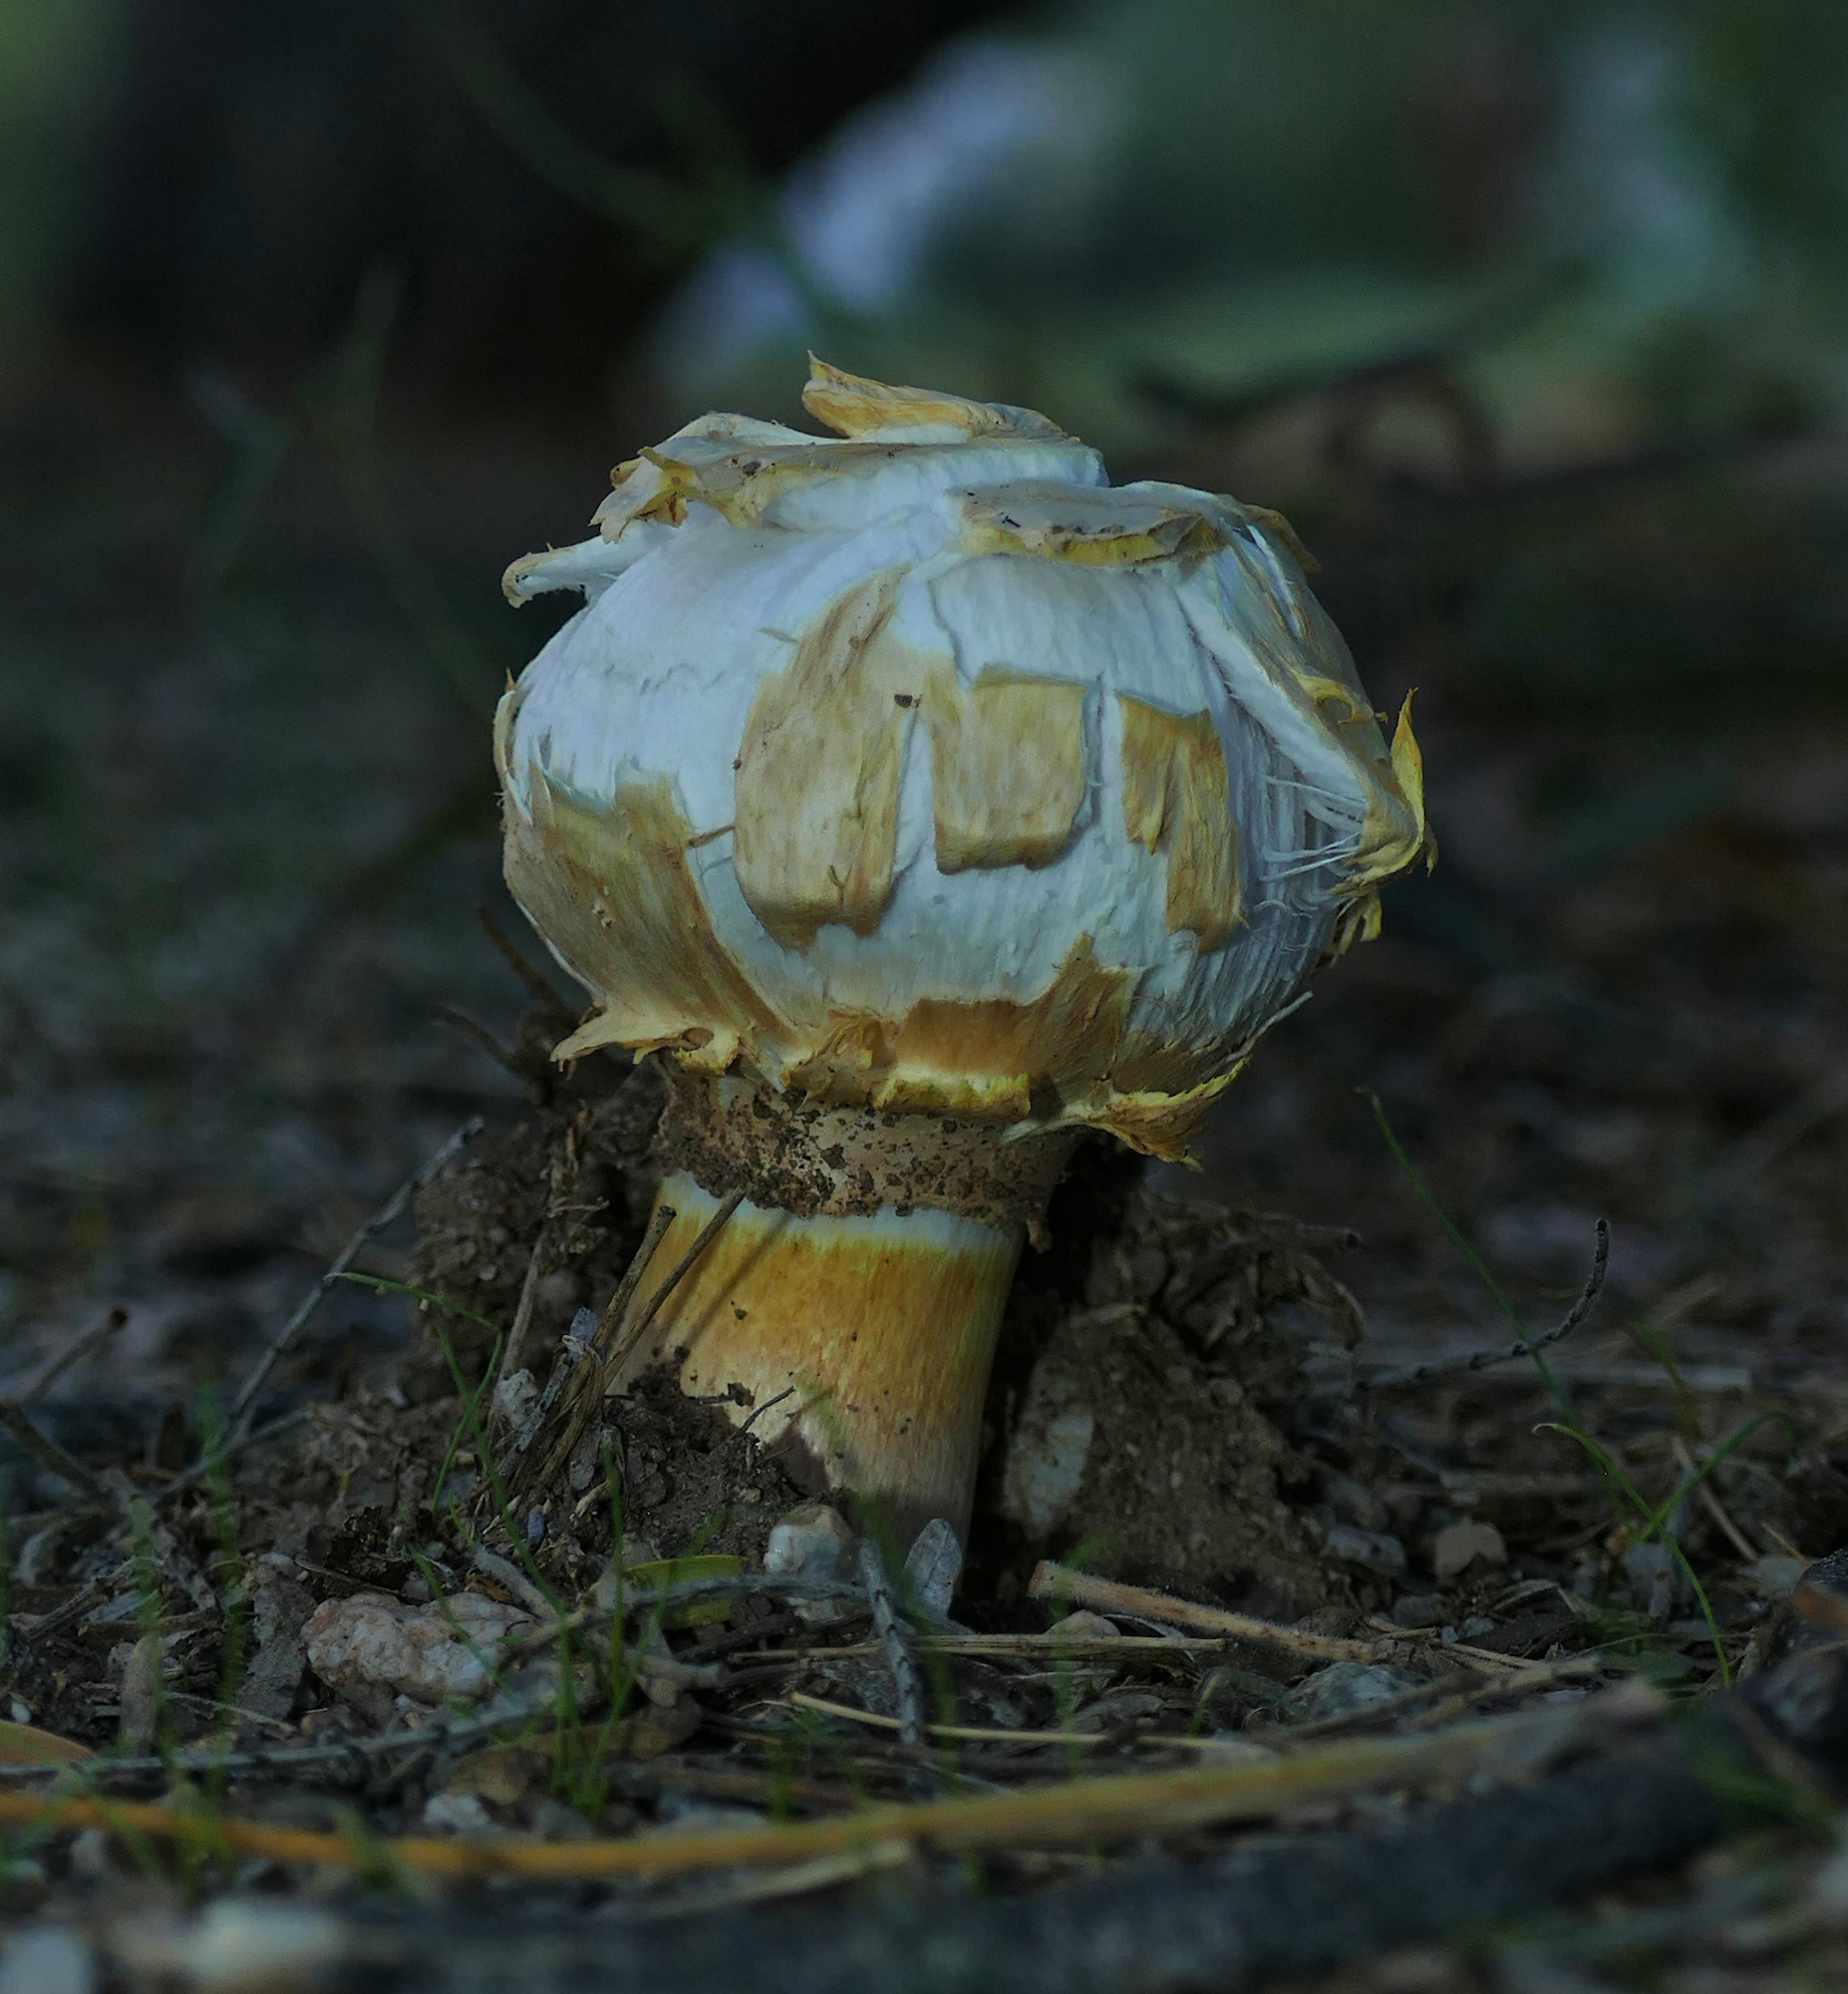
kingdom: Fungi
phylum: Basidiomycota
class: Agaricomycetes
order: Agaricales
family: Agaricaceae
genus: Agaricus
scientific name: Agaricus deserticola
